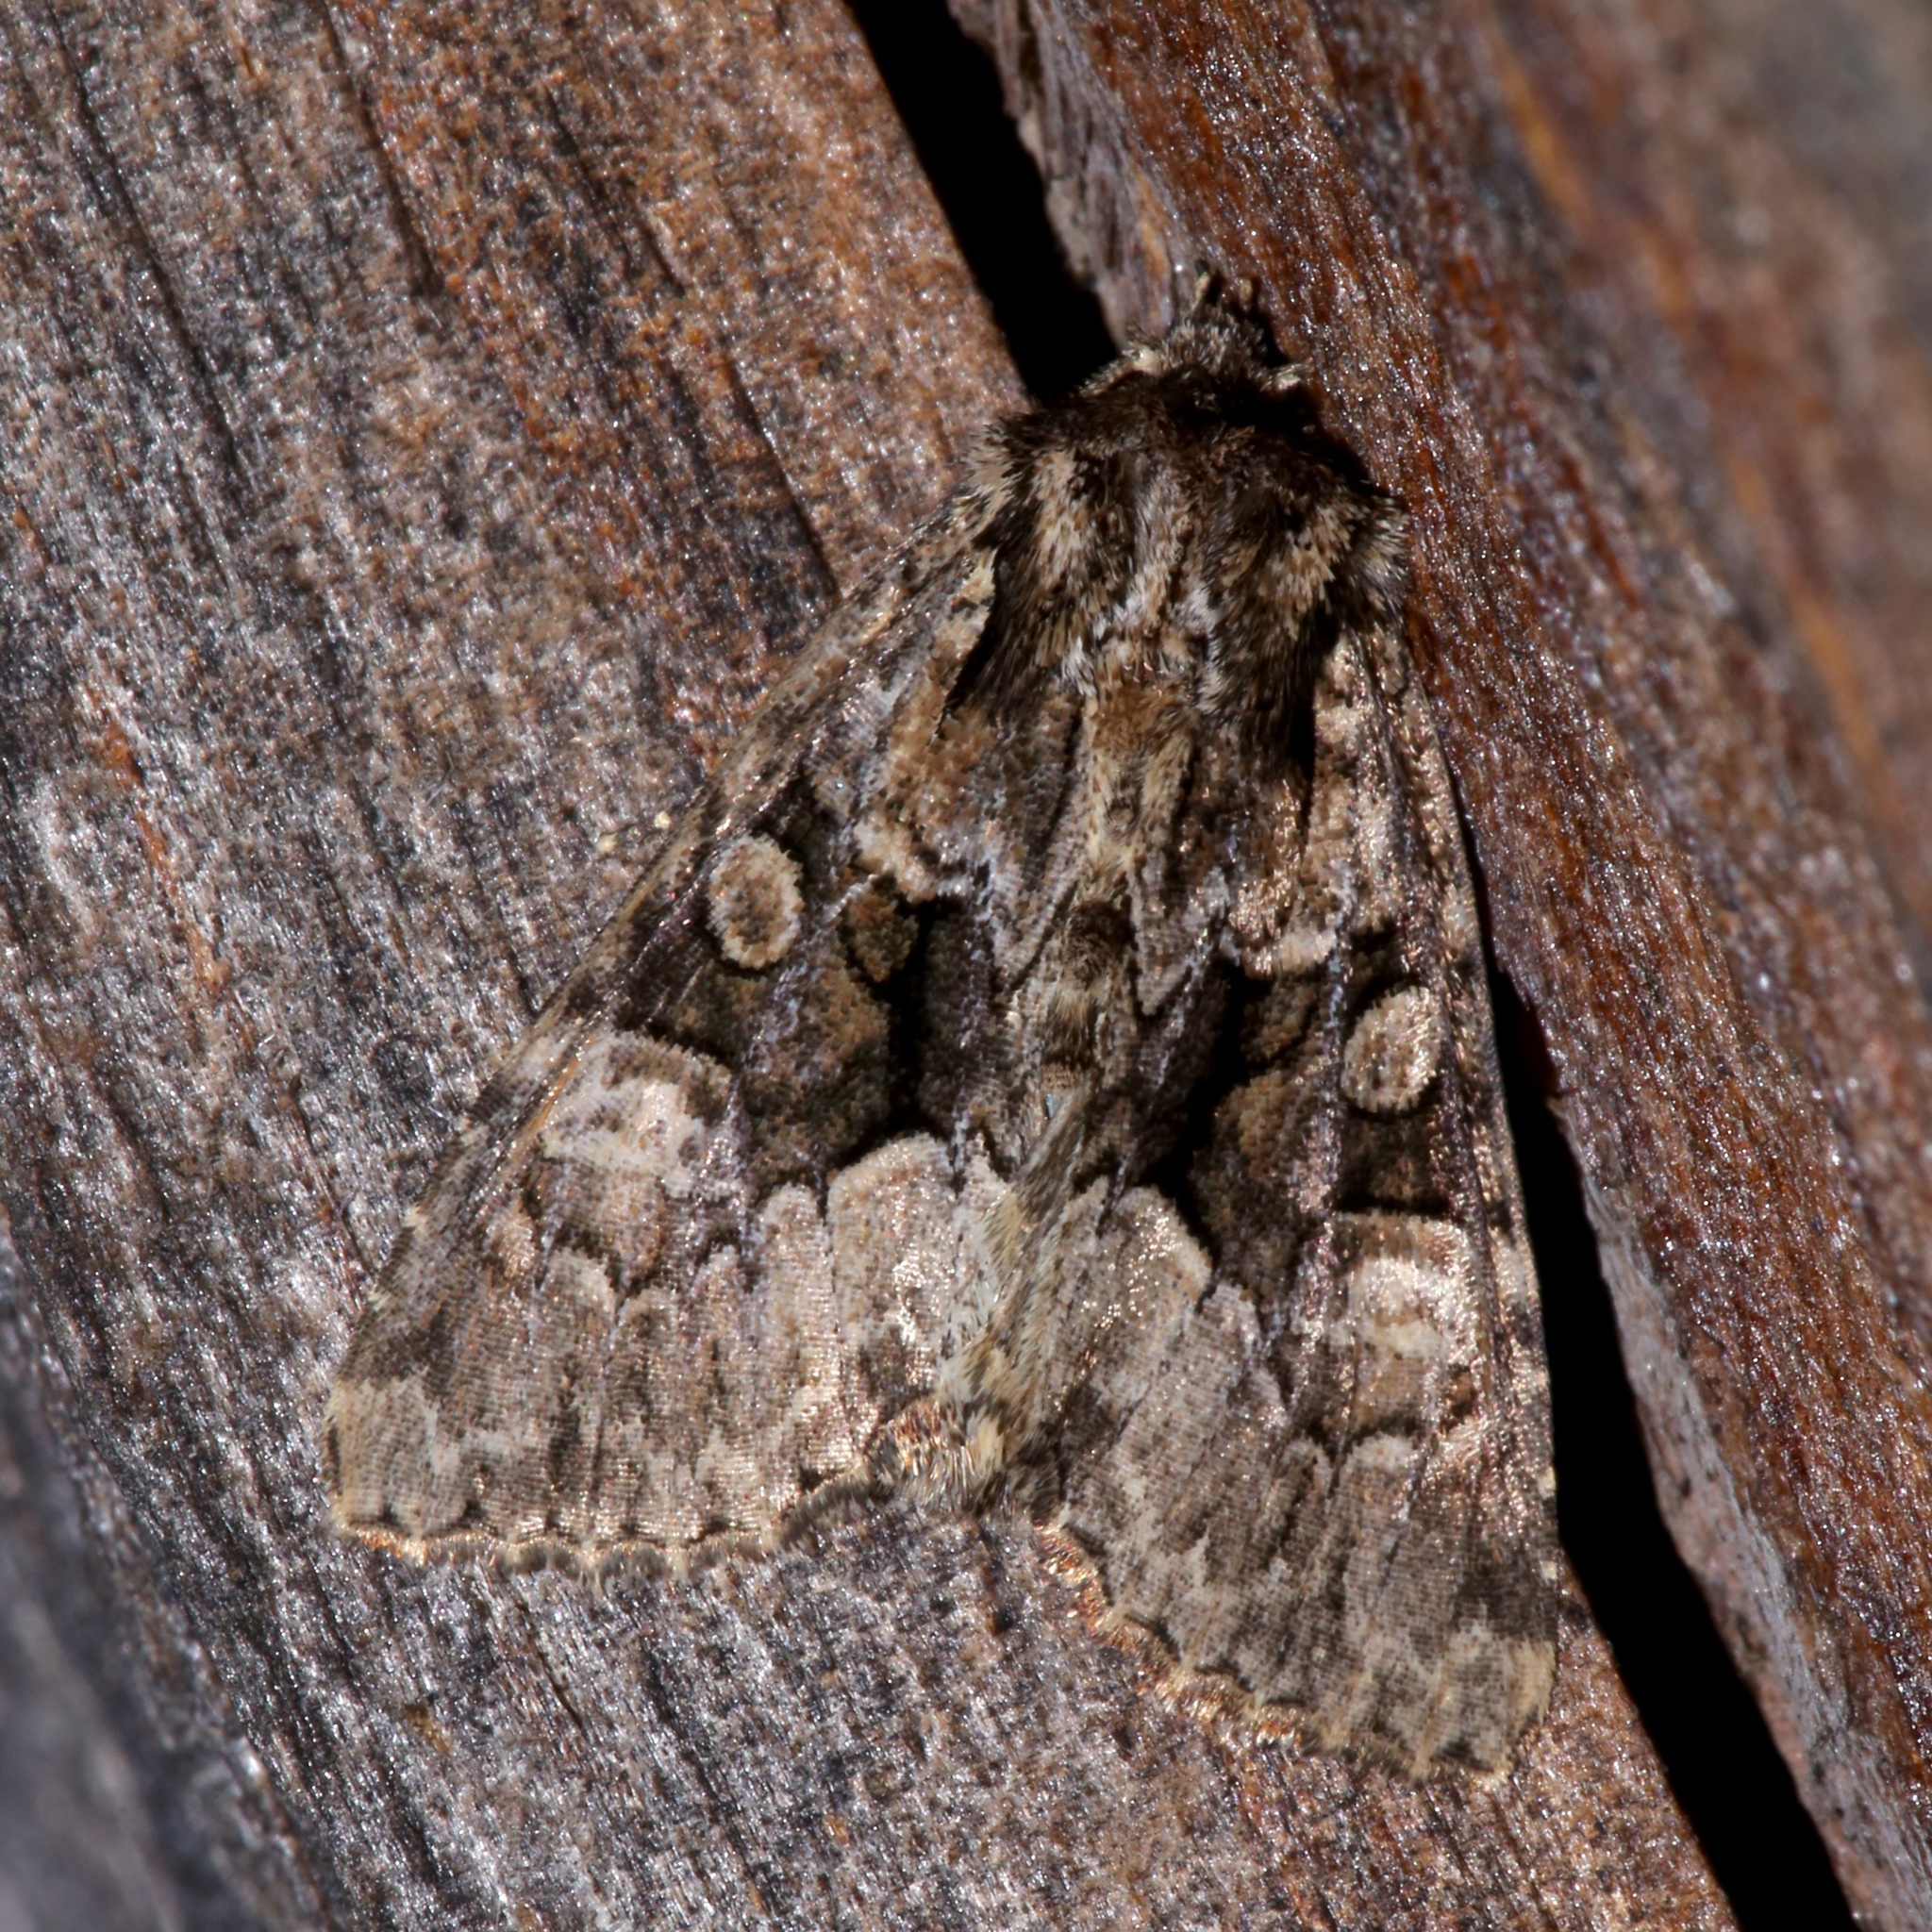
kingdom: Animalia
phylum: Arthropoda
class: Insecta
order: Lepidoptera
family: Noctuidae
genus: Platypolia
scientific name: Platypolia mactata
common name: Adorable brocade moth
